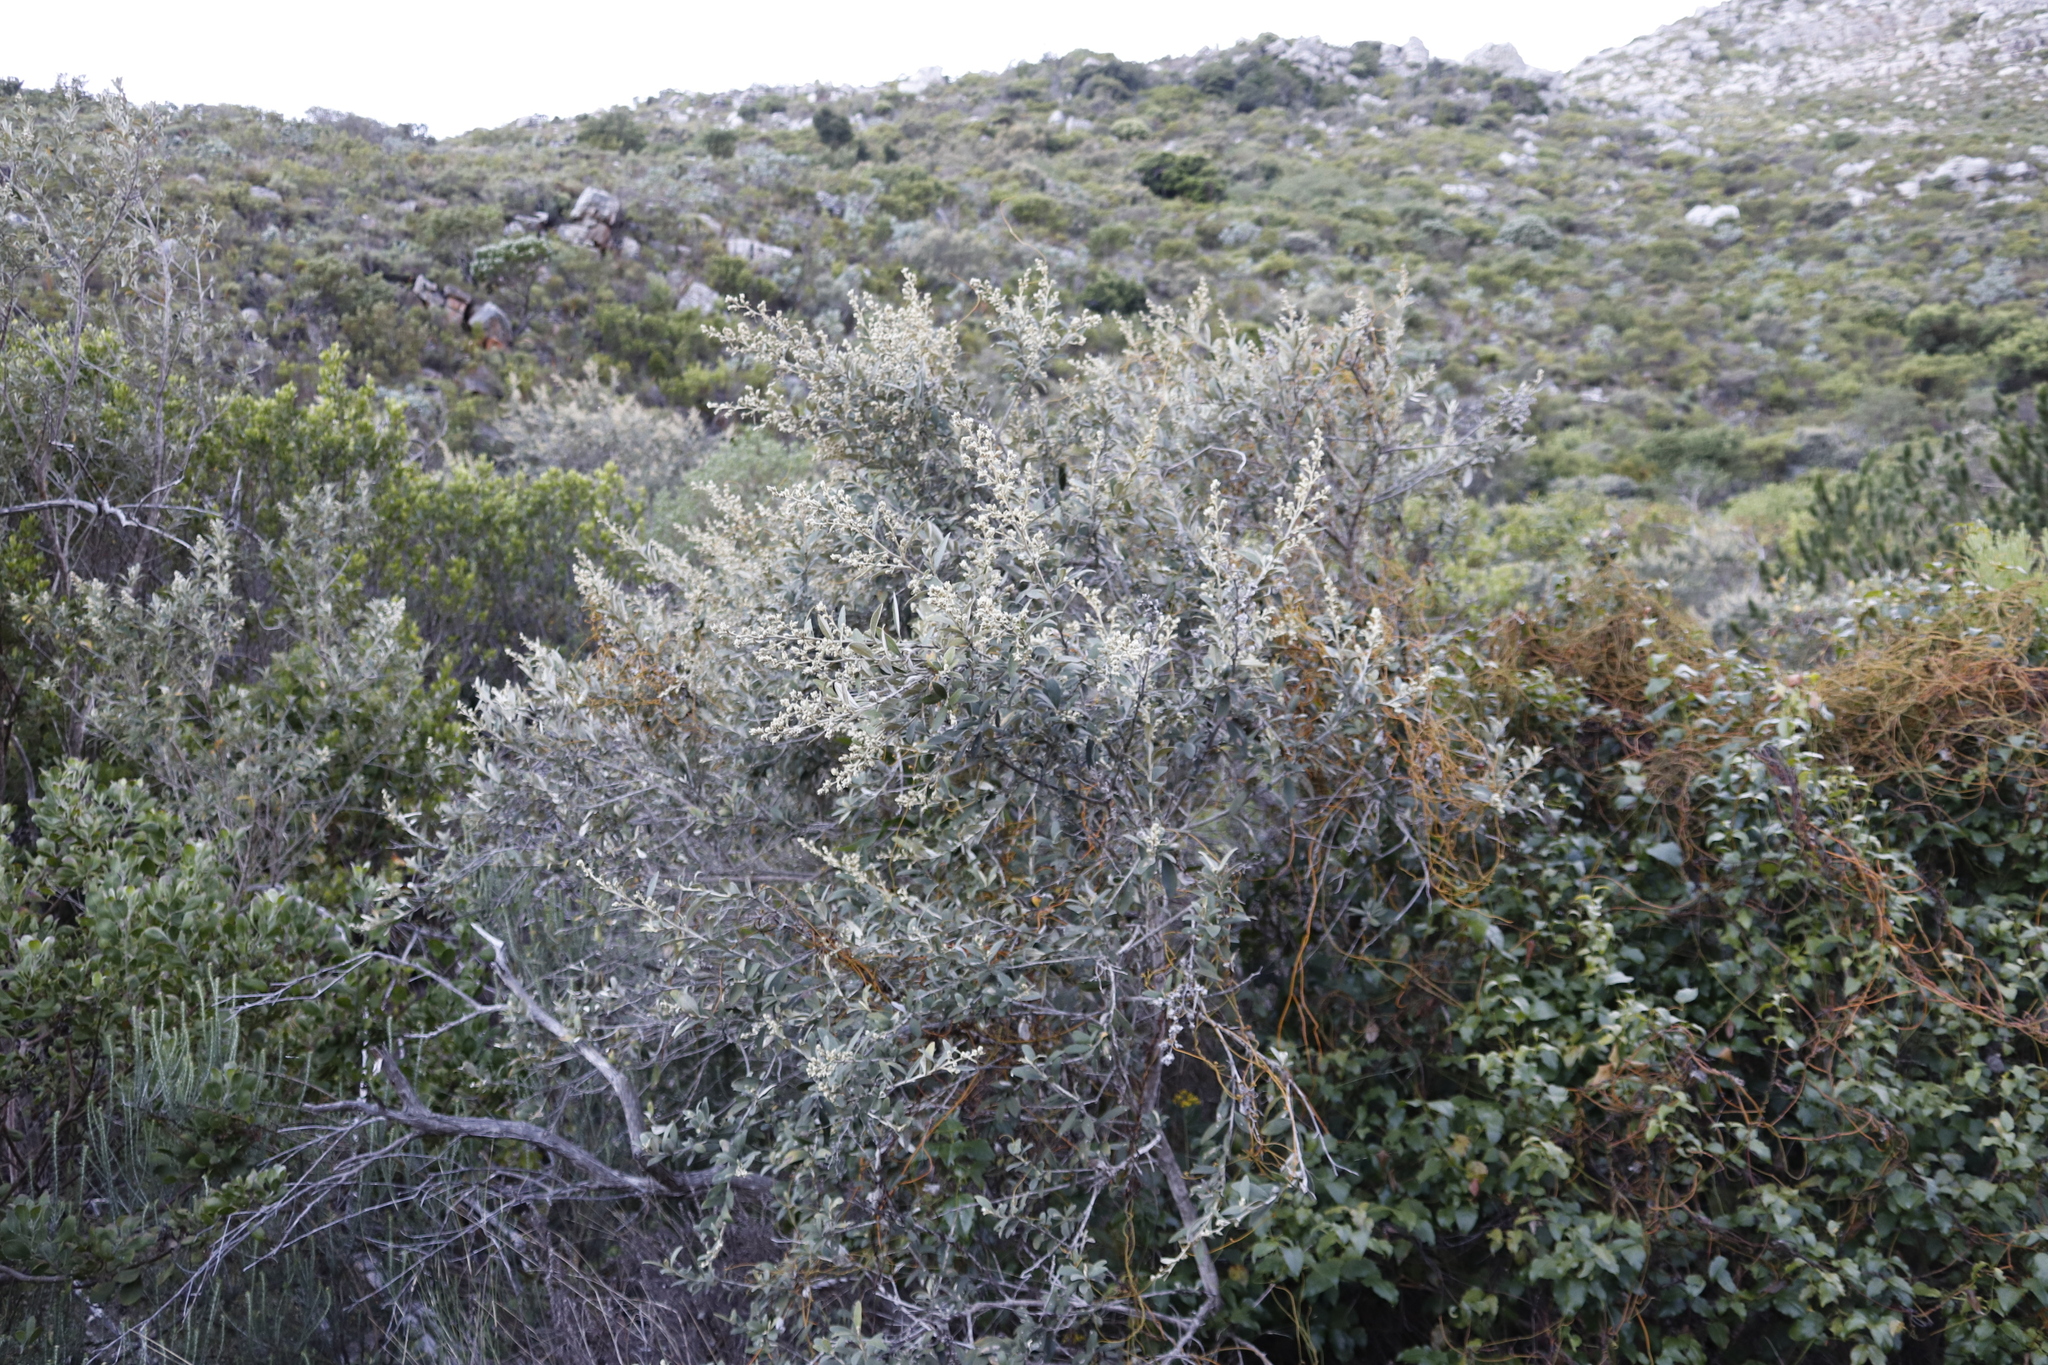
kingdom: Plantae
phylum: Tracheophyta
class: Magnoliopsida
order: Laurales
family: Lauraceae
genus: Cassytha
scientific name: Cassytha ciliolata
